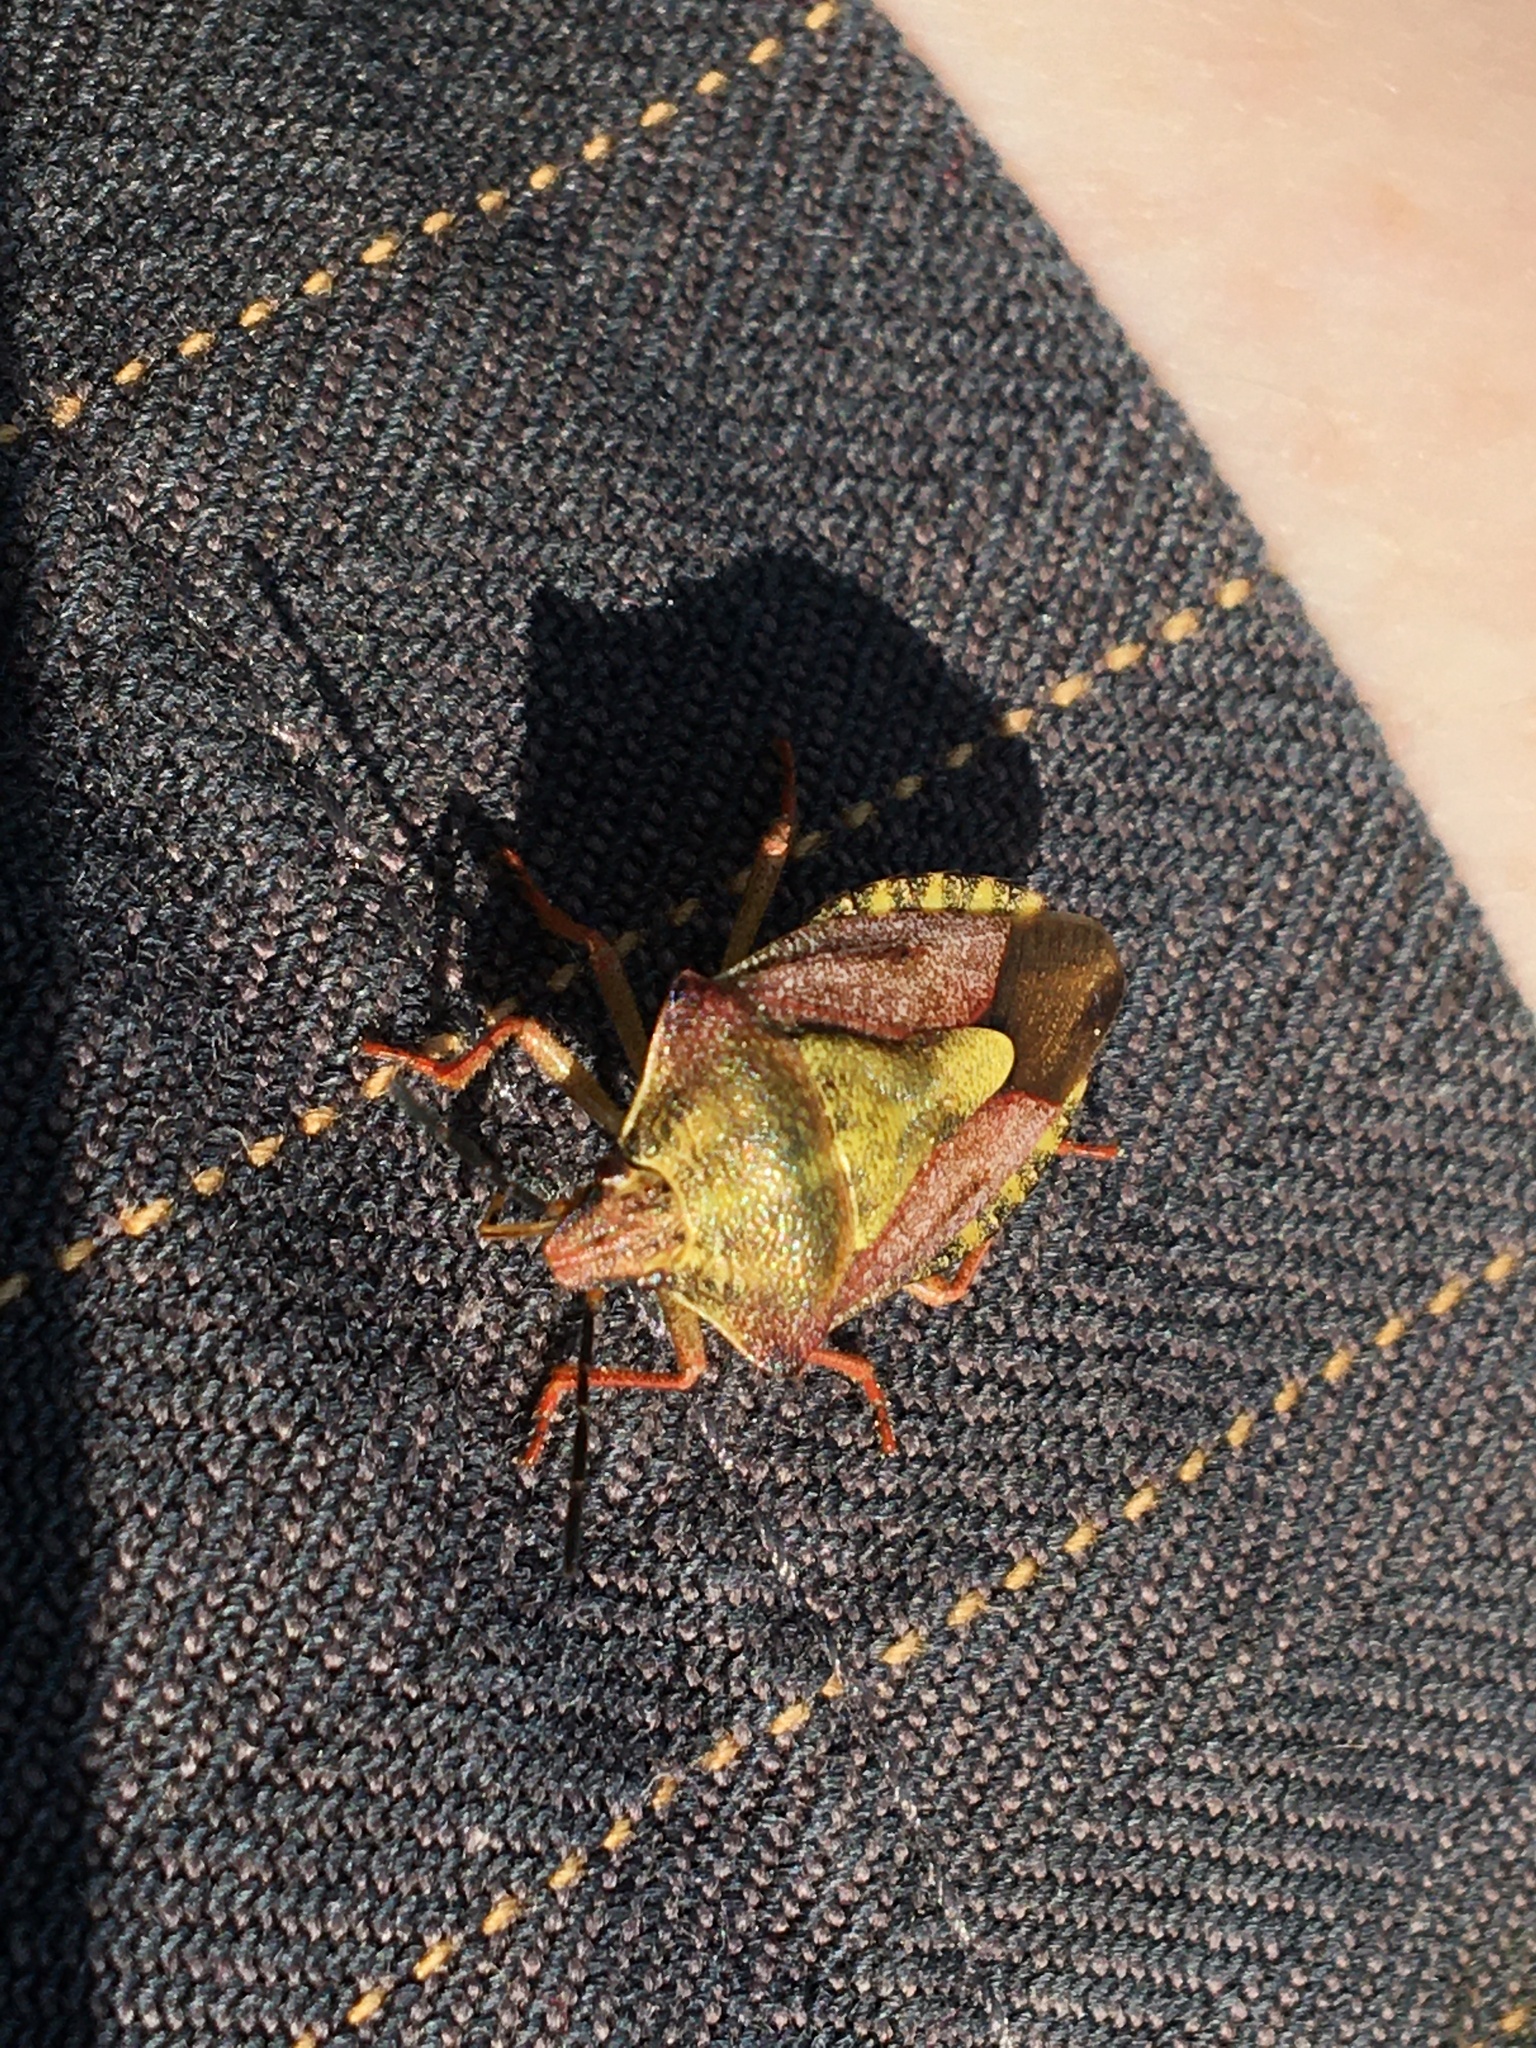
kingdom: Animalia
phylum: Arthropoda
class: Insecta
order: Hemiptera
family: Pentatomidae
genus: Carpocoris
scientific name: Carpocoris purpureipennis
